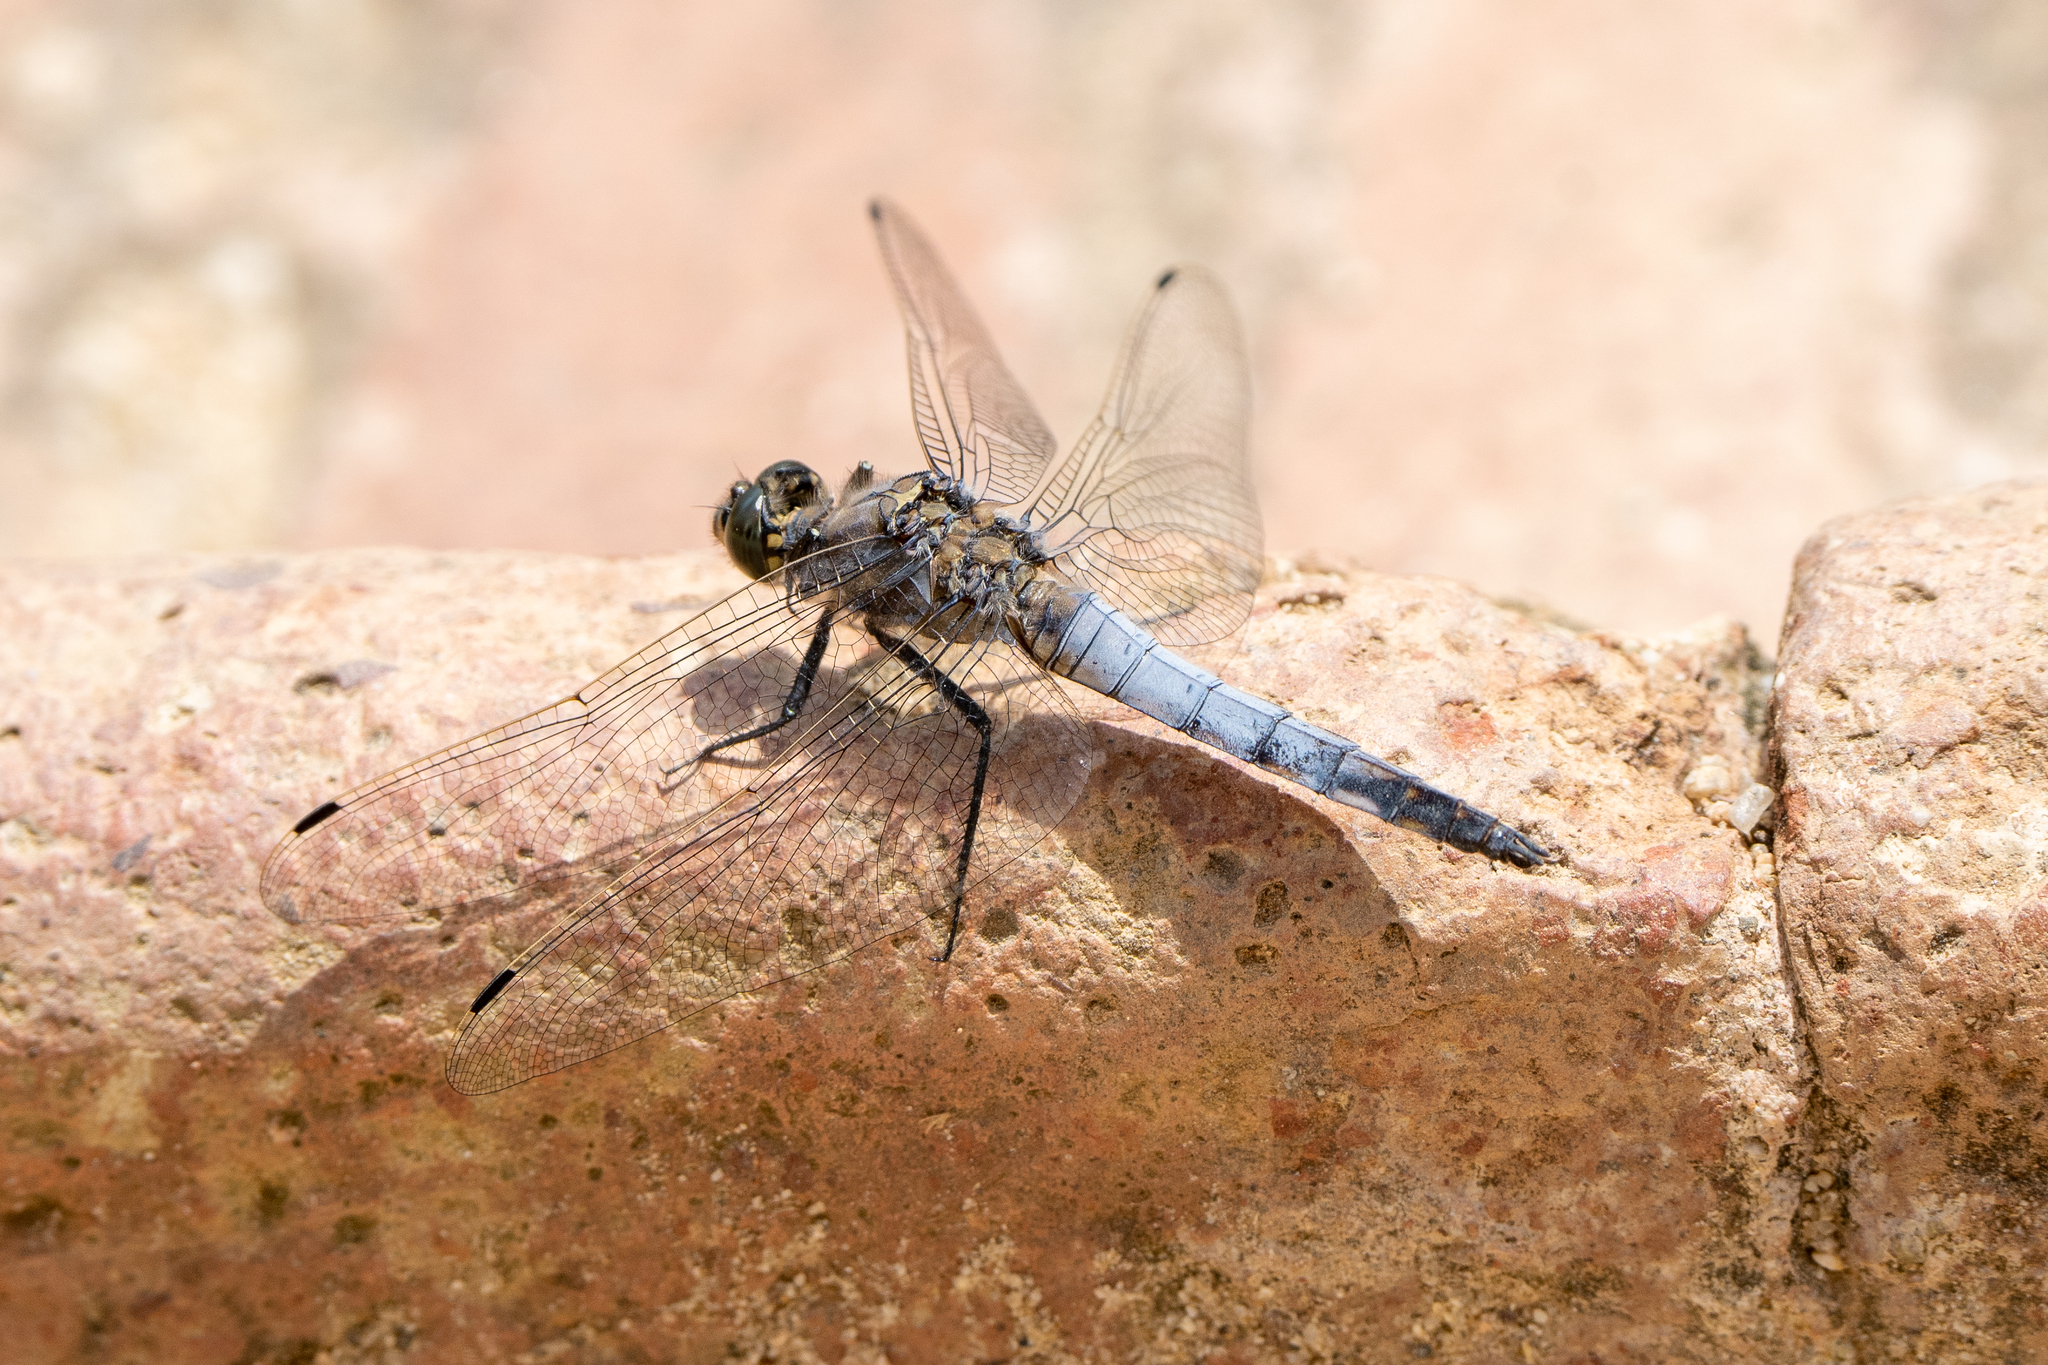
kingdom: Animalia
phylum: Arthropoda
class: Insecta
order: Odonata
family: Libellulidae
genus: Orthetrum
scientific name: Orthetrum cancellatum
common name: Black-tailed skimmer
